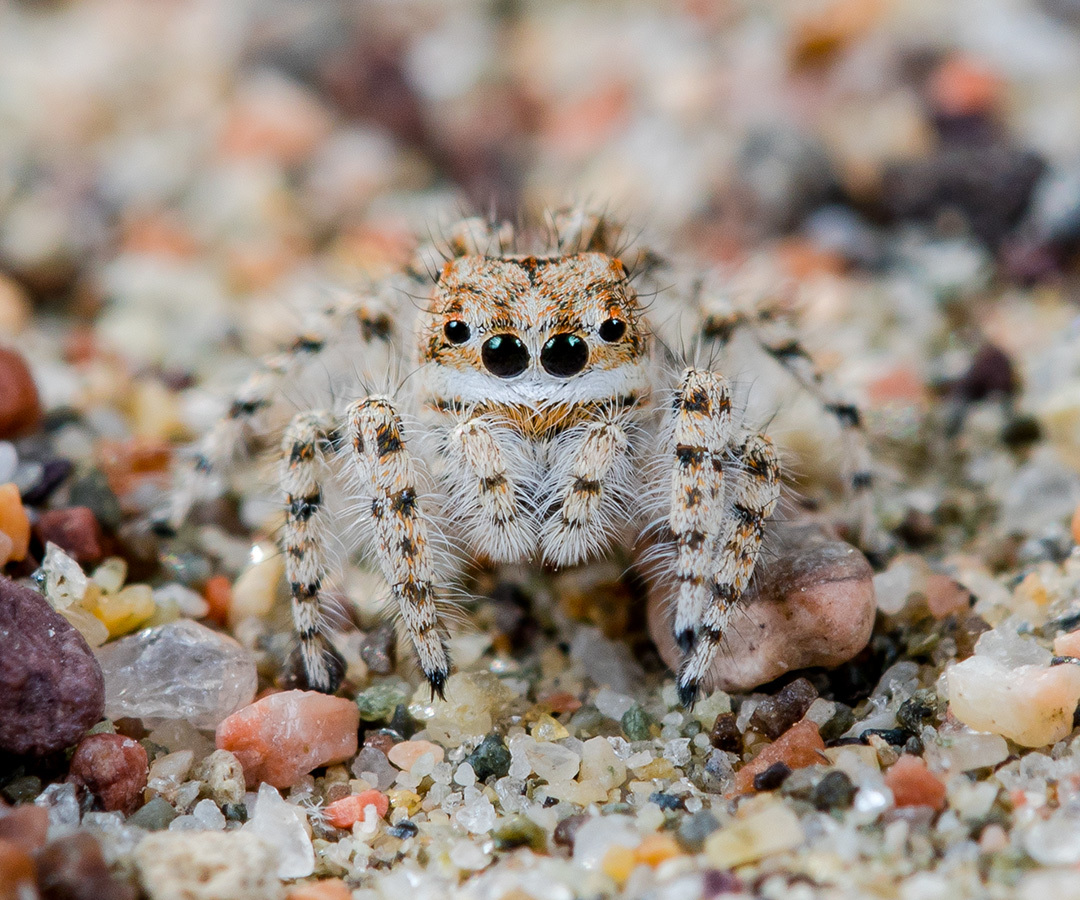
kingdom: Animalia
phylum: Arthropoda
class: Arachnida
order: Araneae
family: Salticidae
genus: Yllenus
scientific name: Yllenus uiguricus
